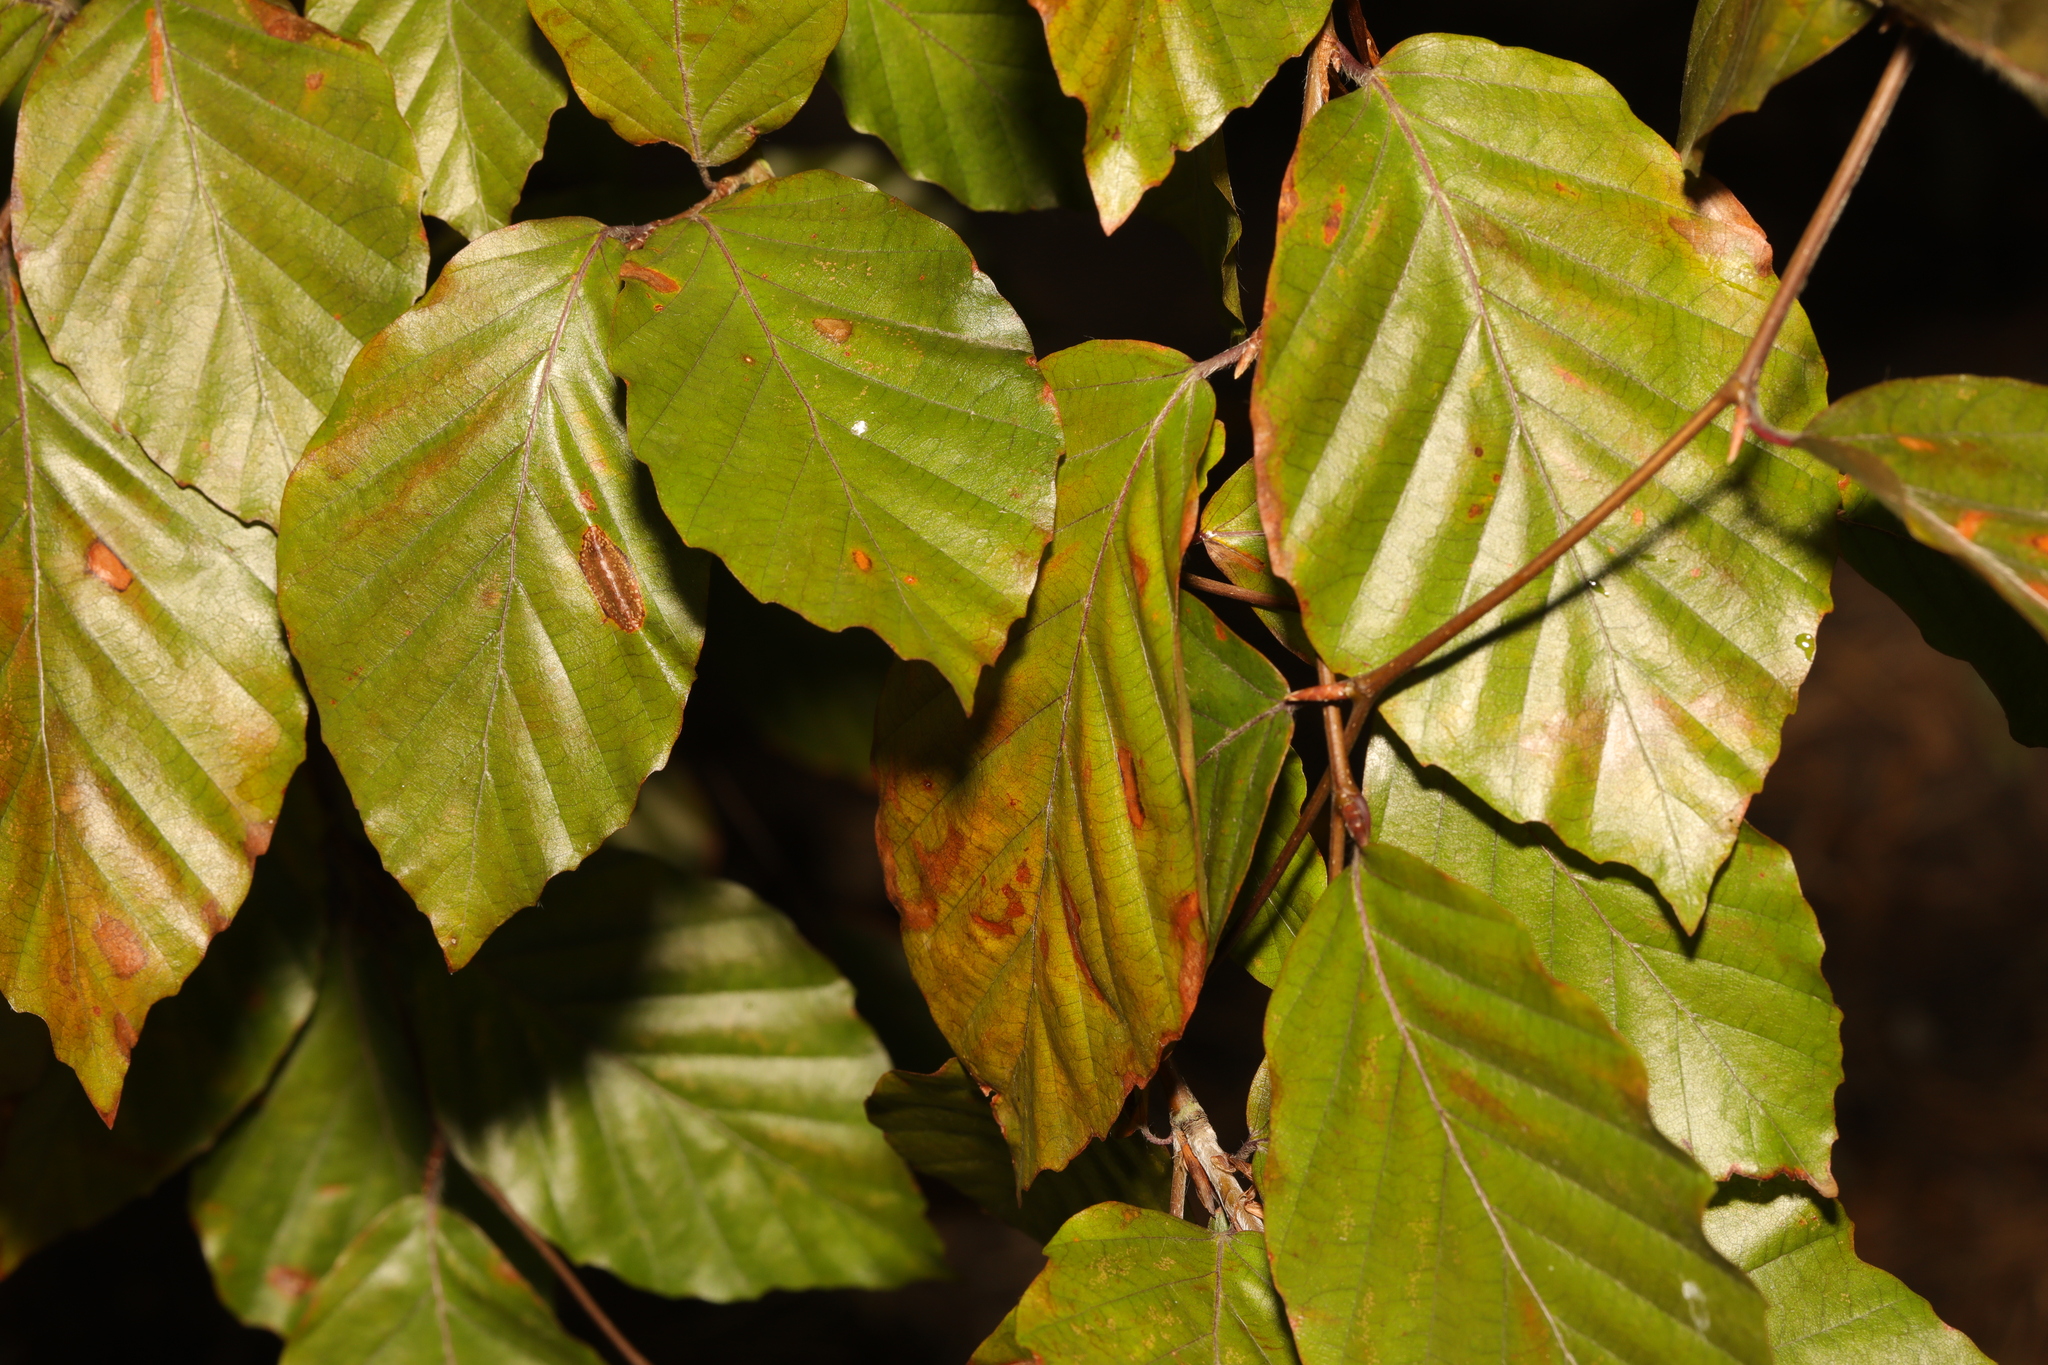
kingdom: Plantae
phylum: Tracheophyta
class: Magnoliopsida
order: Fagales
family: Fagaceae
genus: Fagus
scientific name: Fagus sylvatica
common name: Beech
